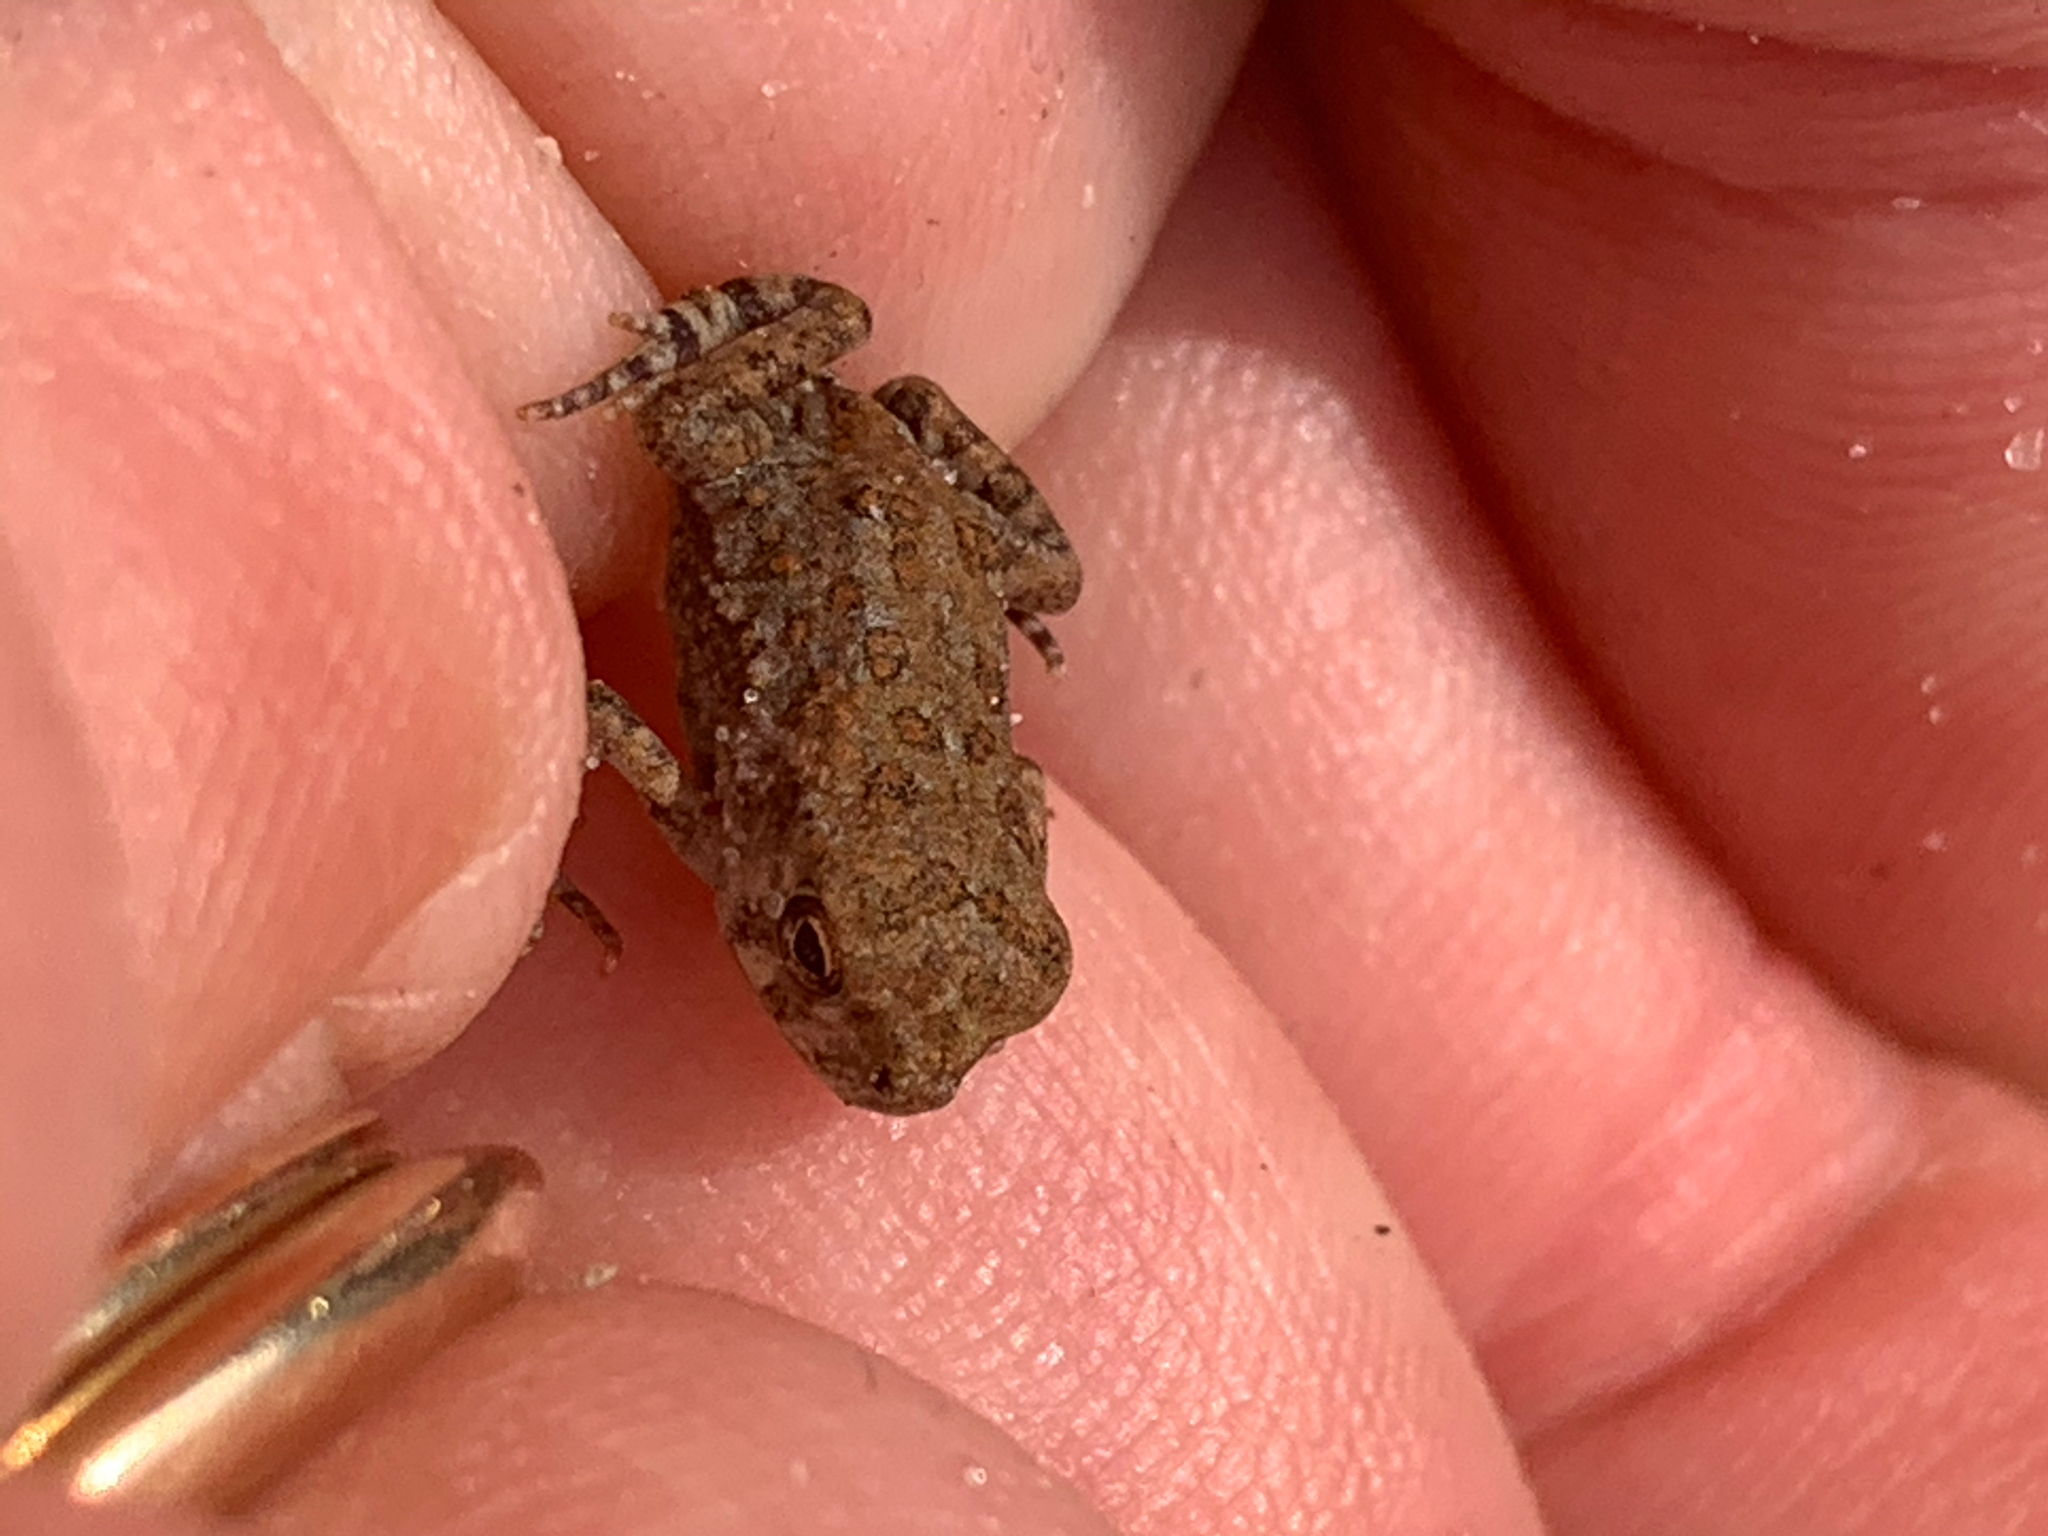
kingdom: Animalia
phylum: Chordata
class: Amphibia
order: Anura
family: Bufonidae
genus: Anaxyrus
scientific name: Anaxyrus fowleri
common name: Fowler's toad
